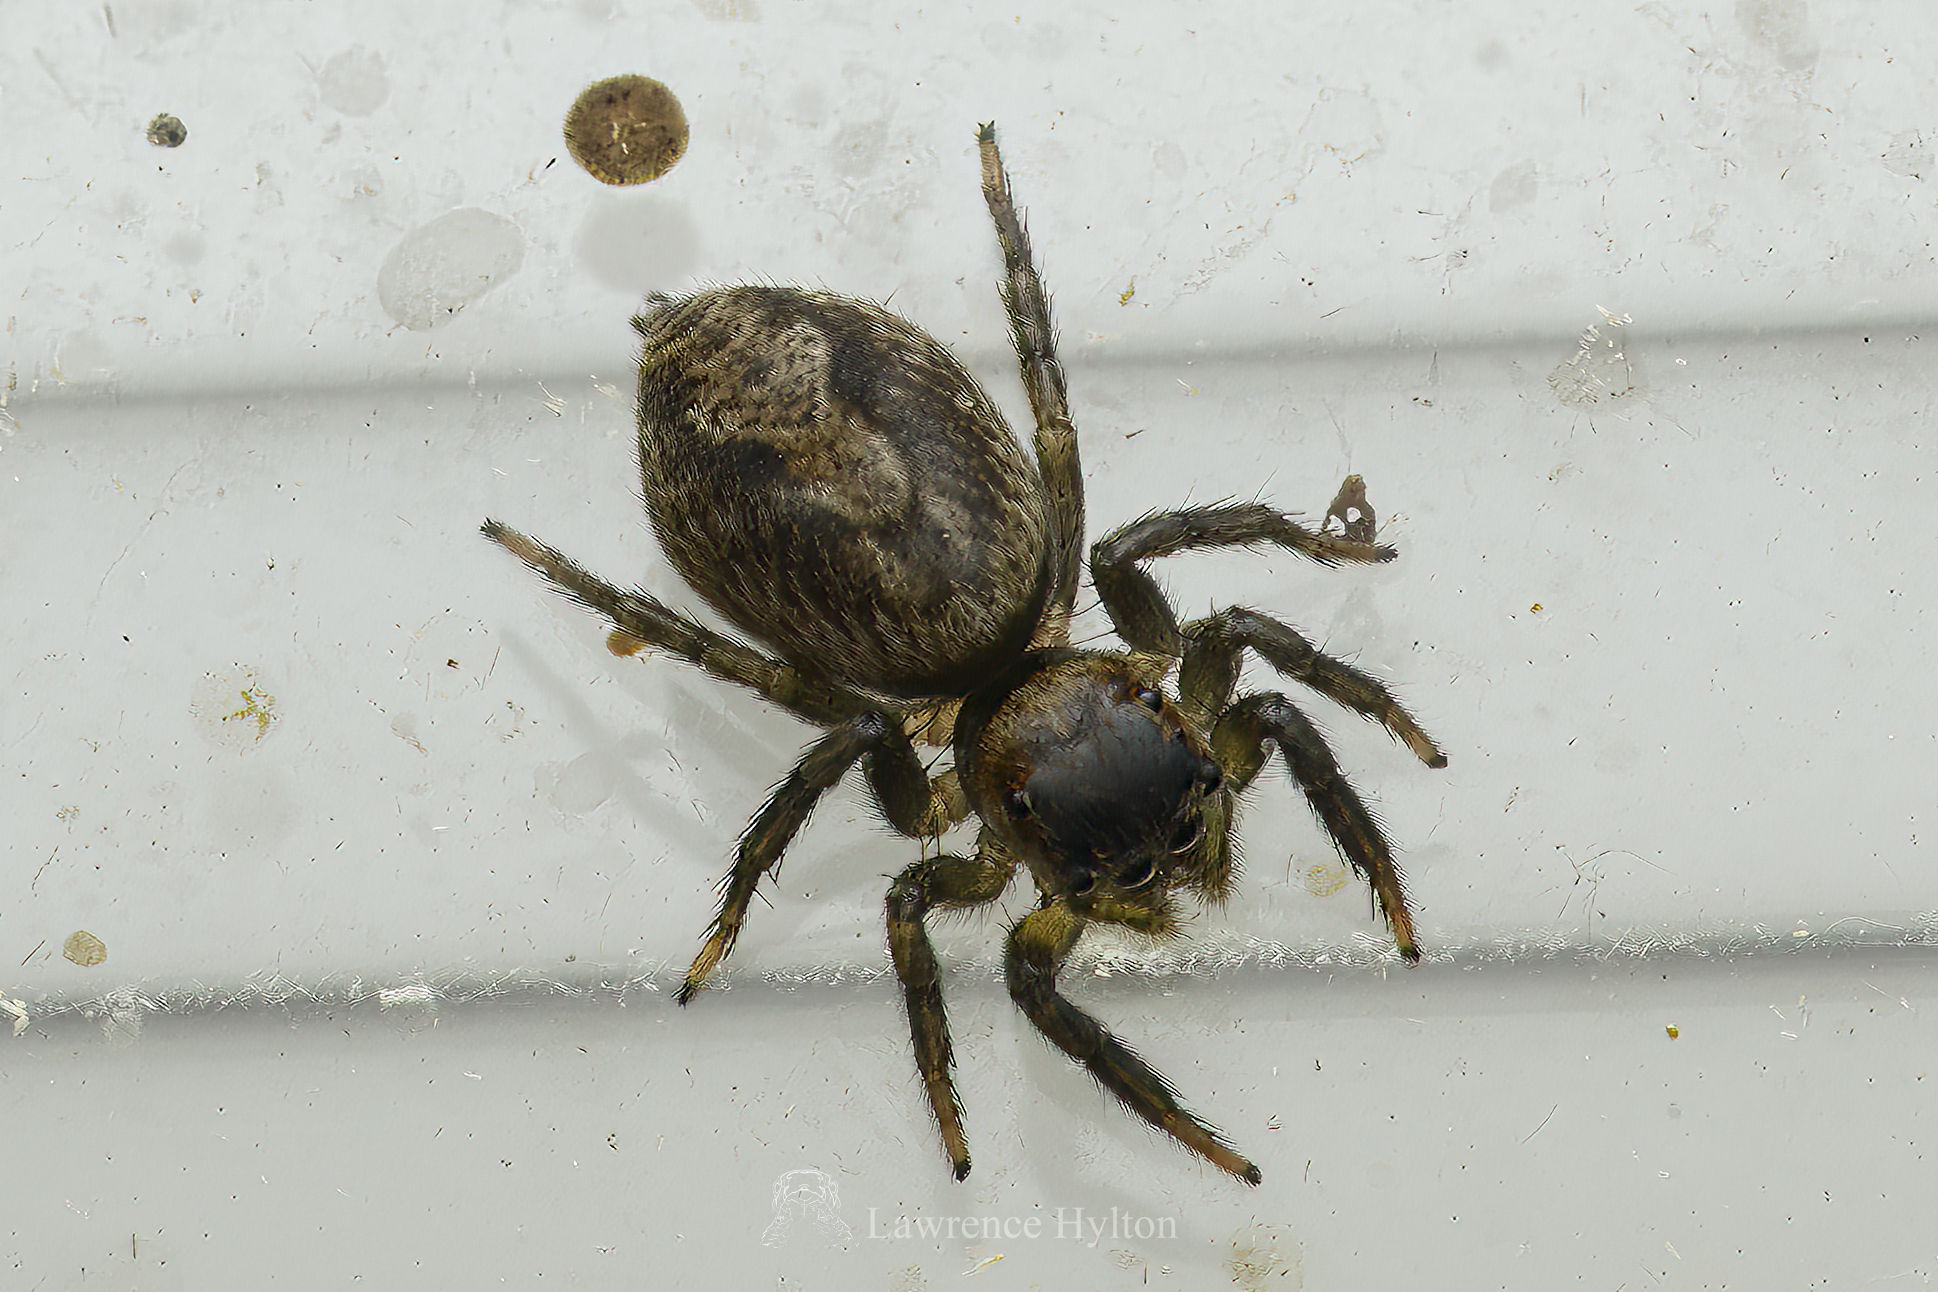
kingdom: Animalia
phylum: Arthropoda
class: Arachnida
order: Araneae
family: Salticidae
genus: Hasarius
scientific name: Hasarius adansoni
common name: Jumping spider
